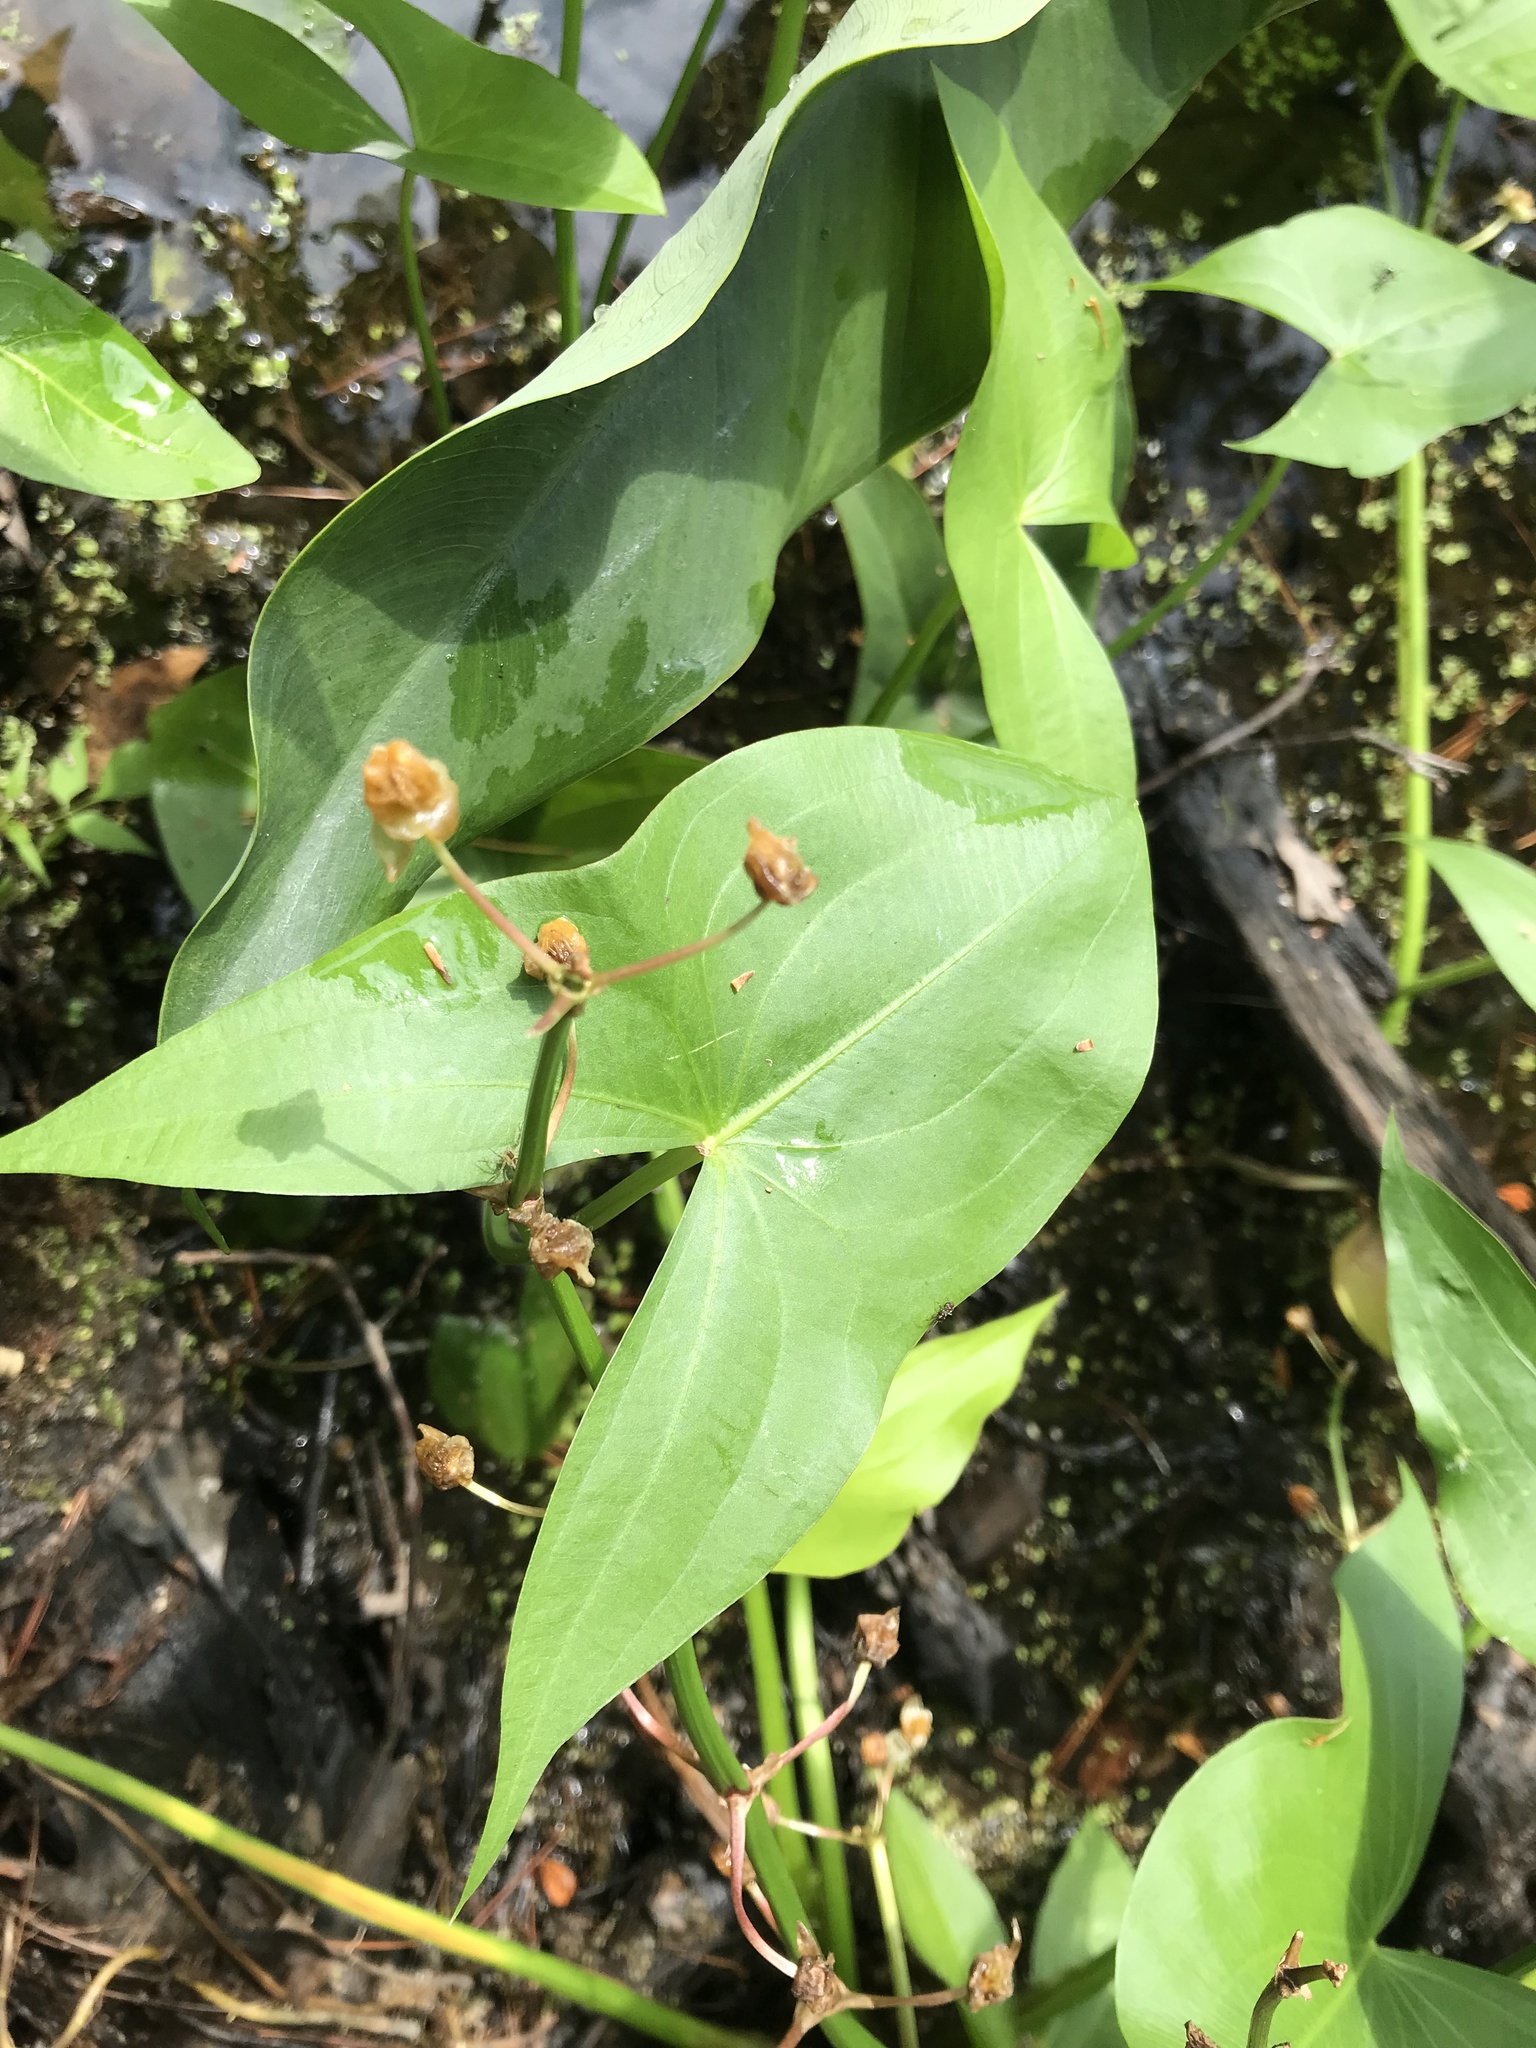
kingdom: Plantae
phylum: Tracheophyta
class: Liliopsida
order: Alismatales
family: Alismataceae
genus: Sagittaria
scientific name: Sagittaria latifolia
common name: Duck-potato
